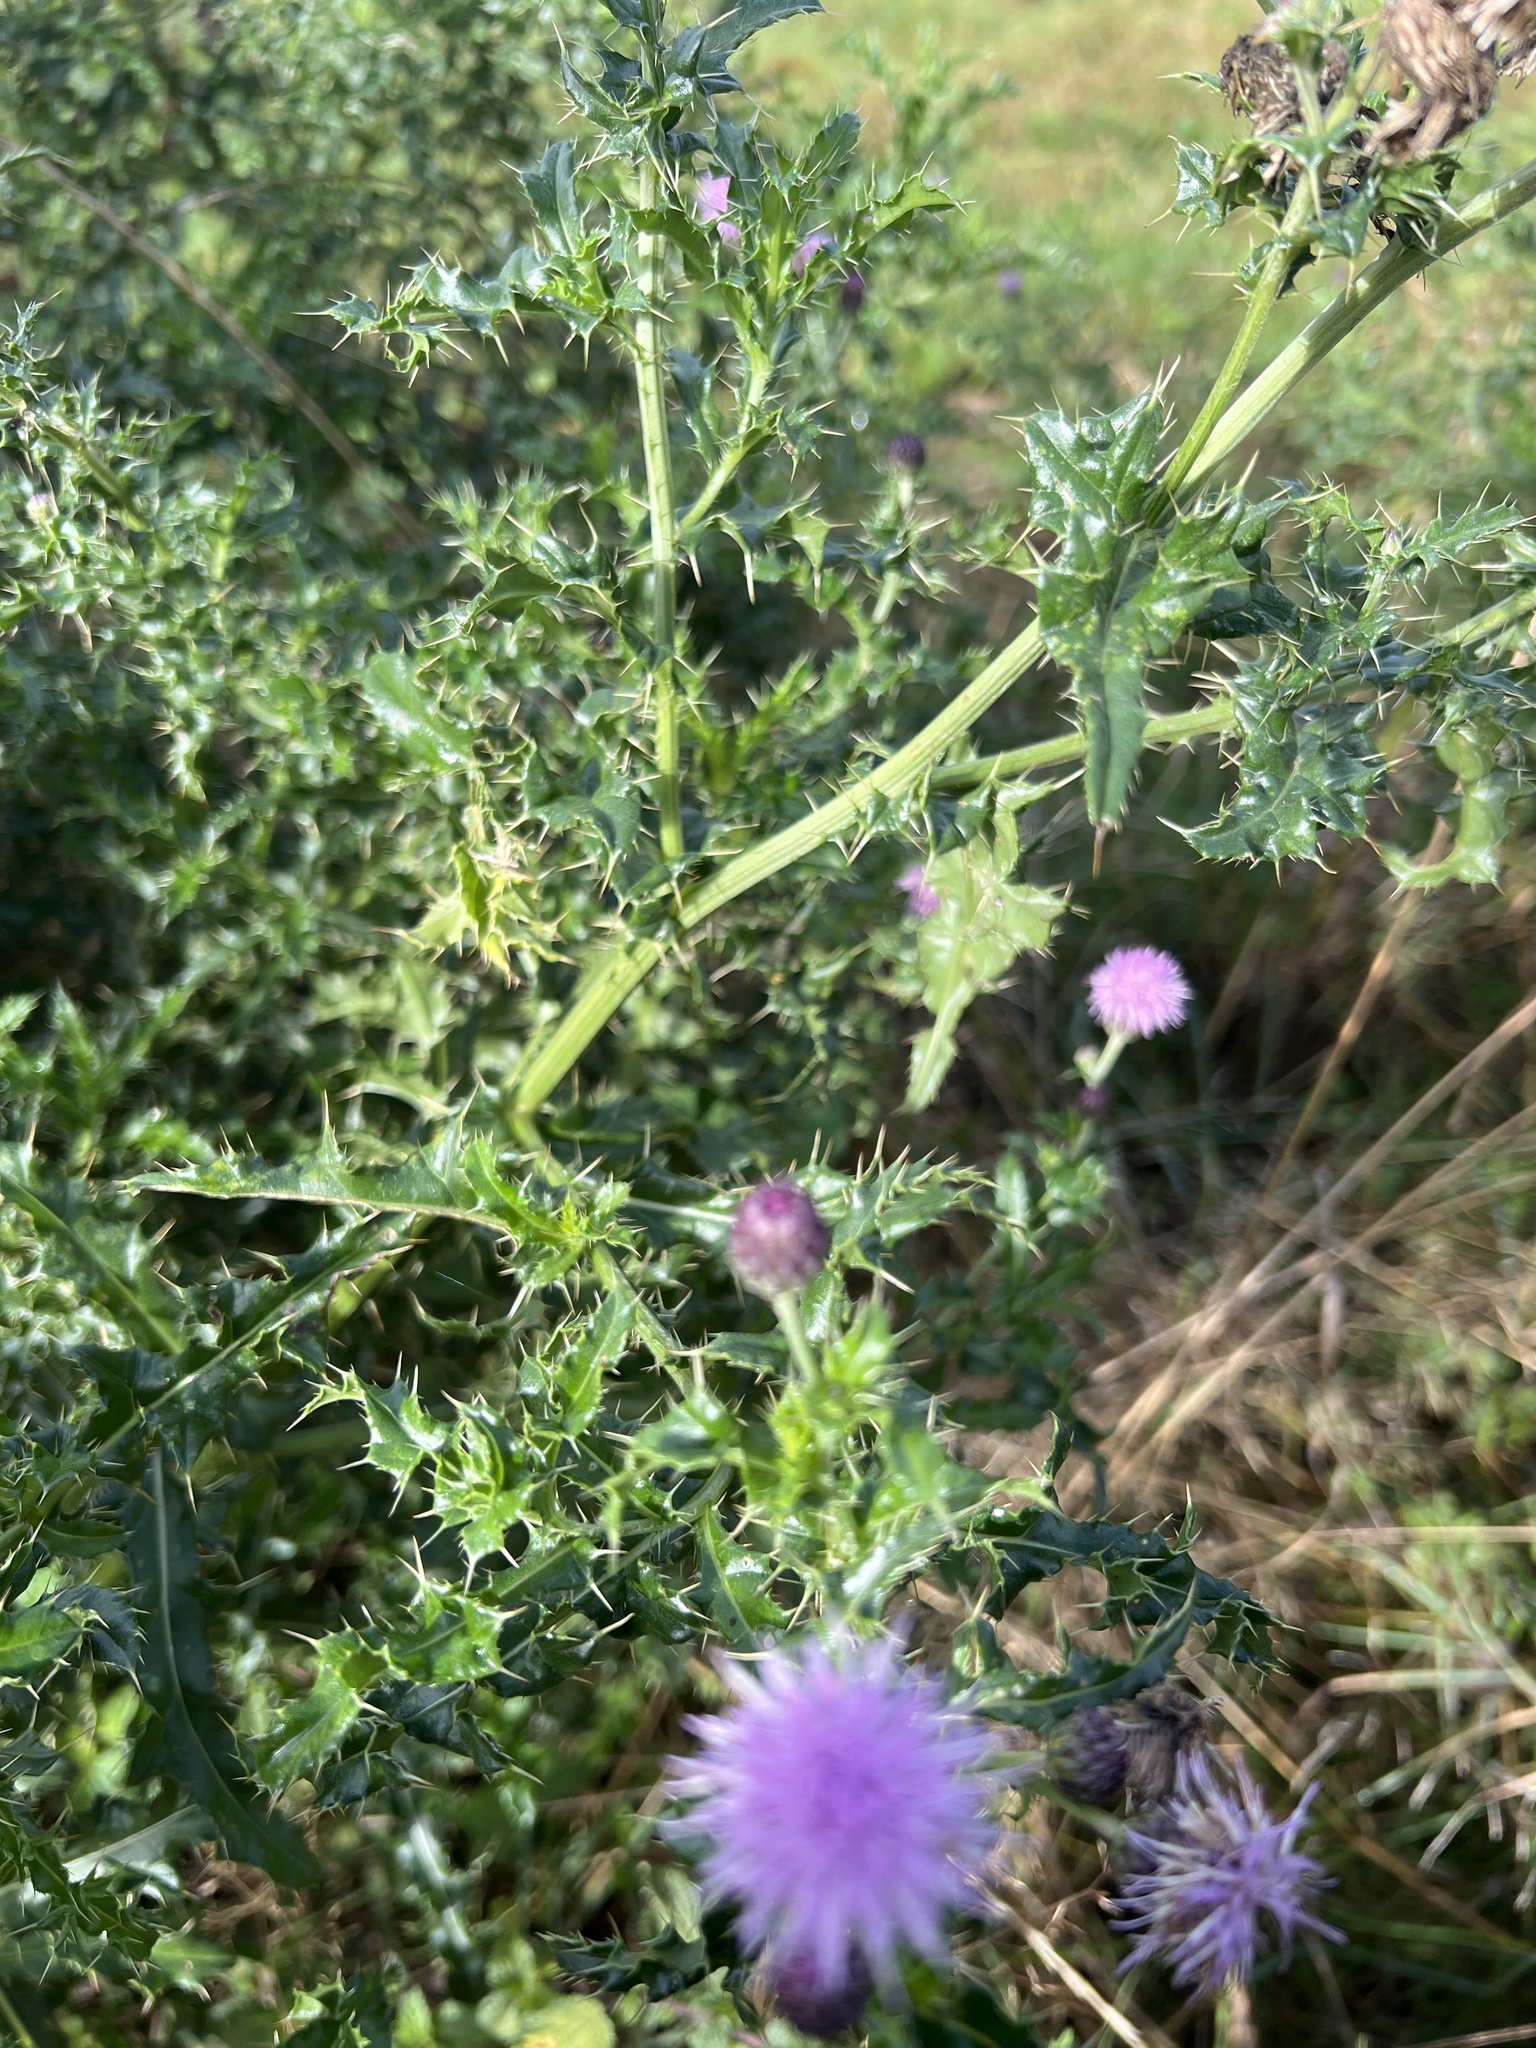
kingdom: Plantae
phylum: Tracheophyta
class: Magnoliopsida
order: Asterales
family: Asteraceae
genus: Cirsium
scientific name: Cirsium arvense
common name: Creeping thistle
